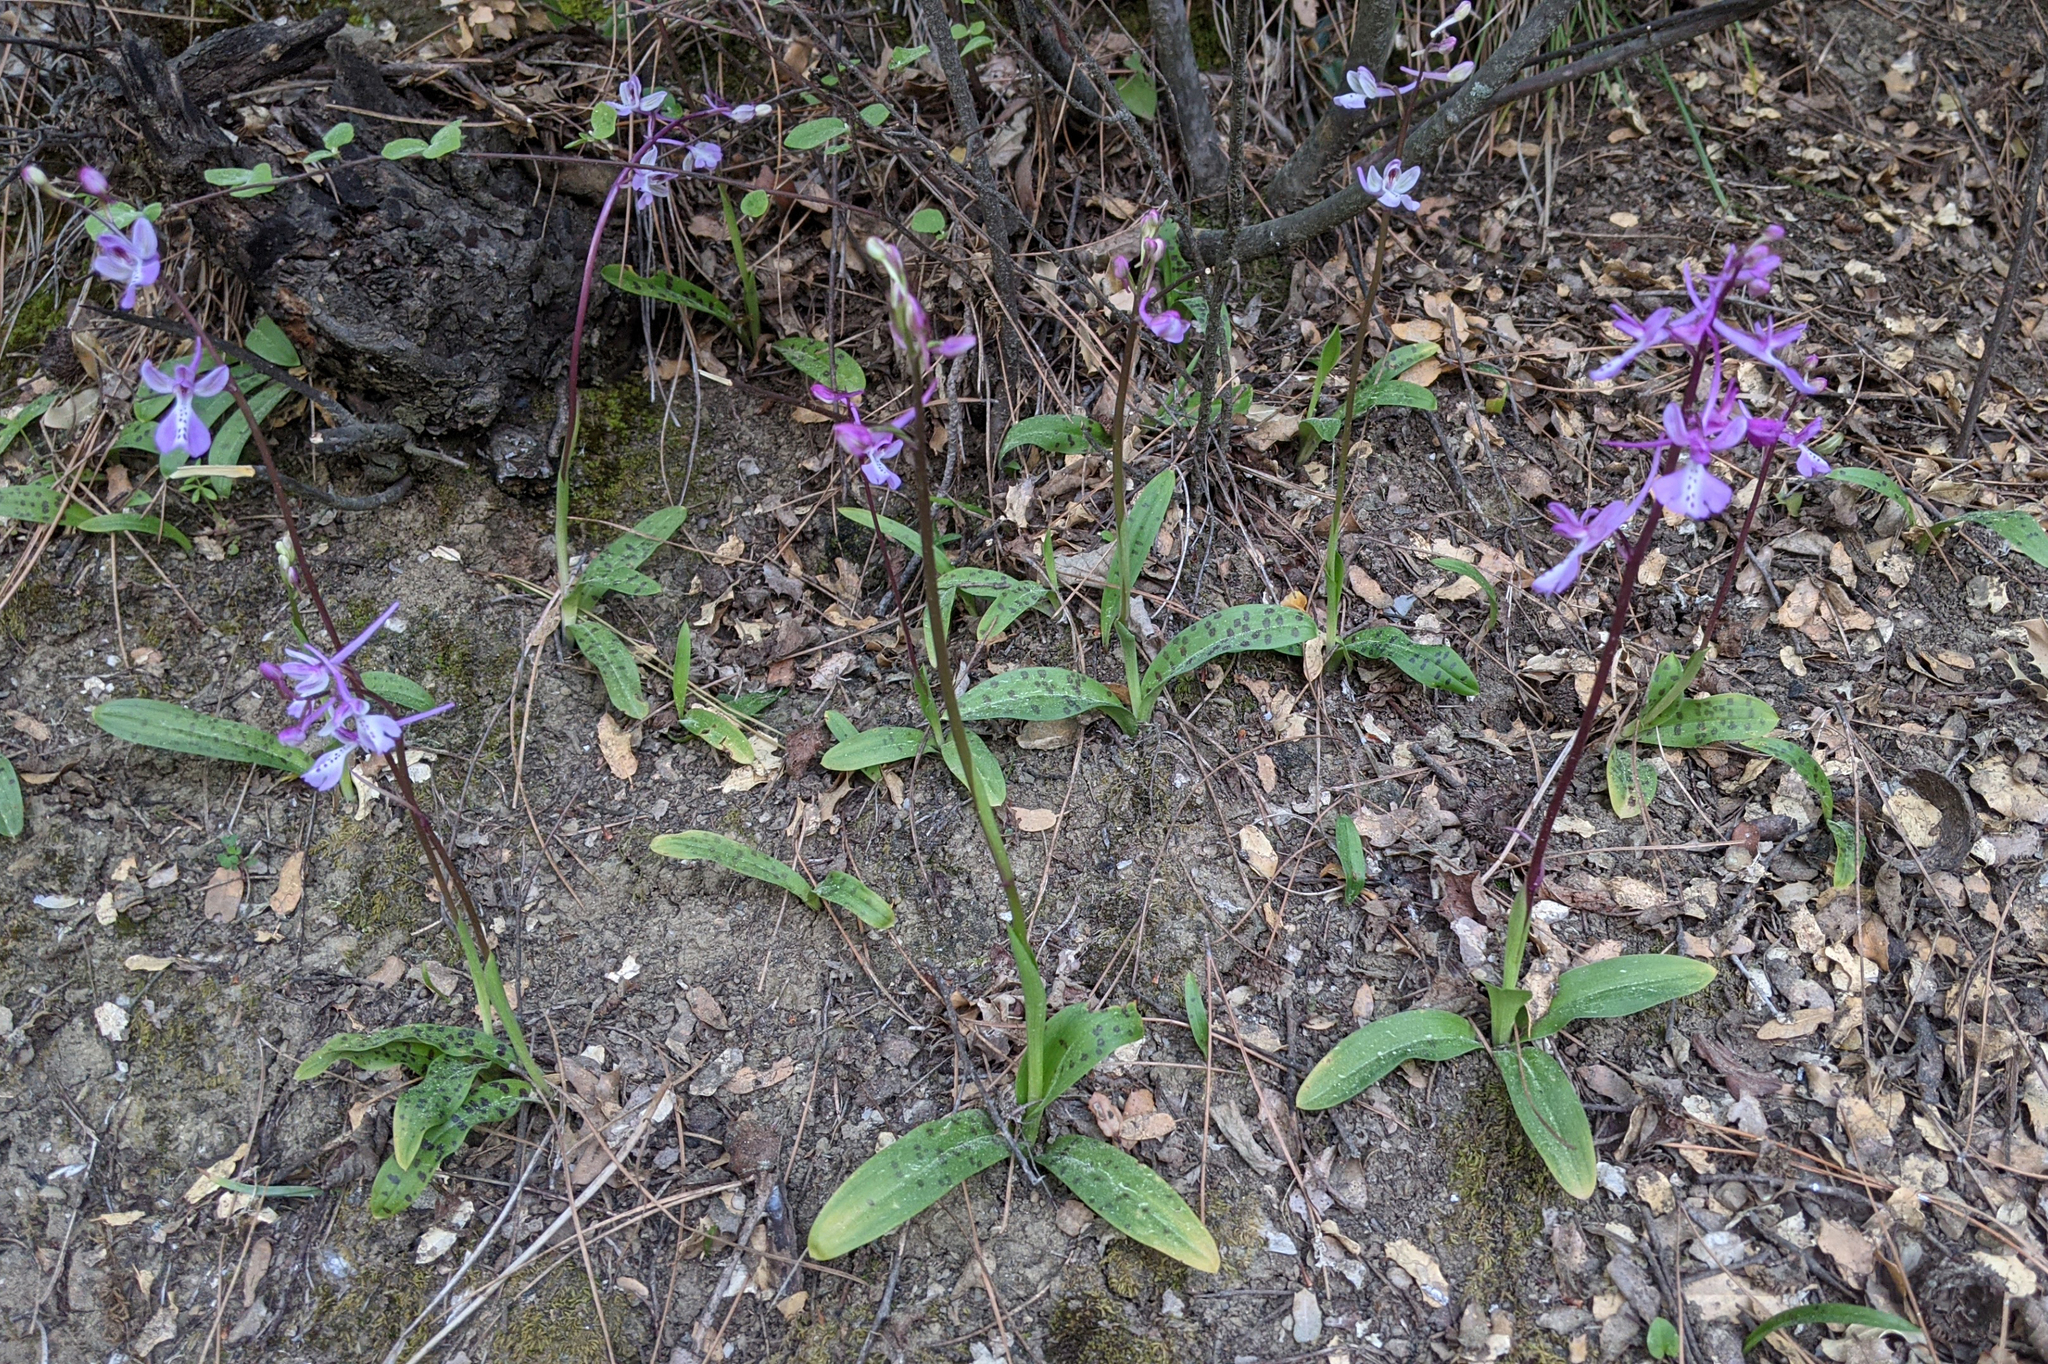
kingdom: Plantae
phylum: Tracheophyta
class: Liliopsida
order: Asparagales
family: Orchidaceae
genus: Orchis
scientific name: Orchis anatolica
